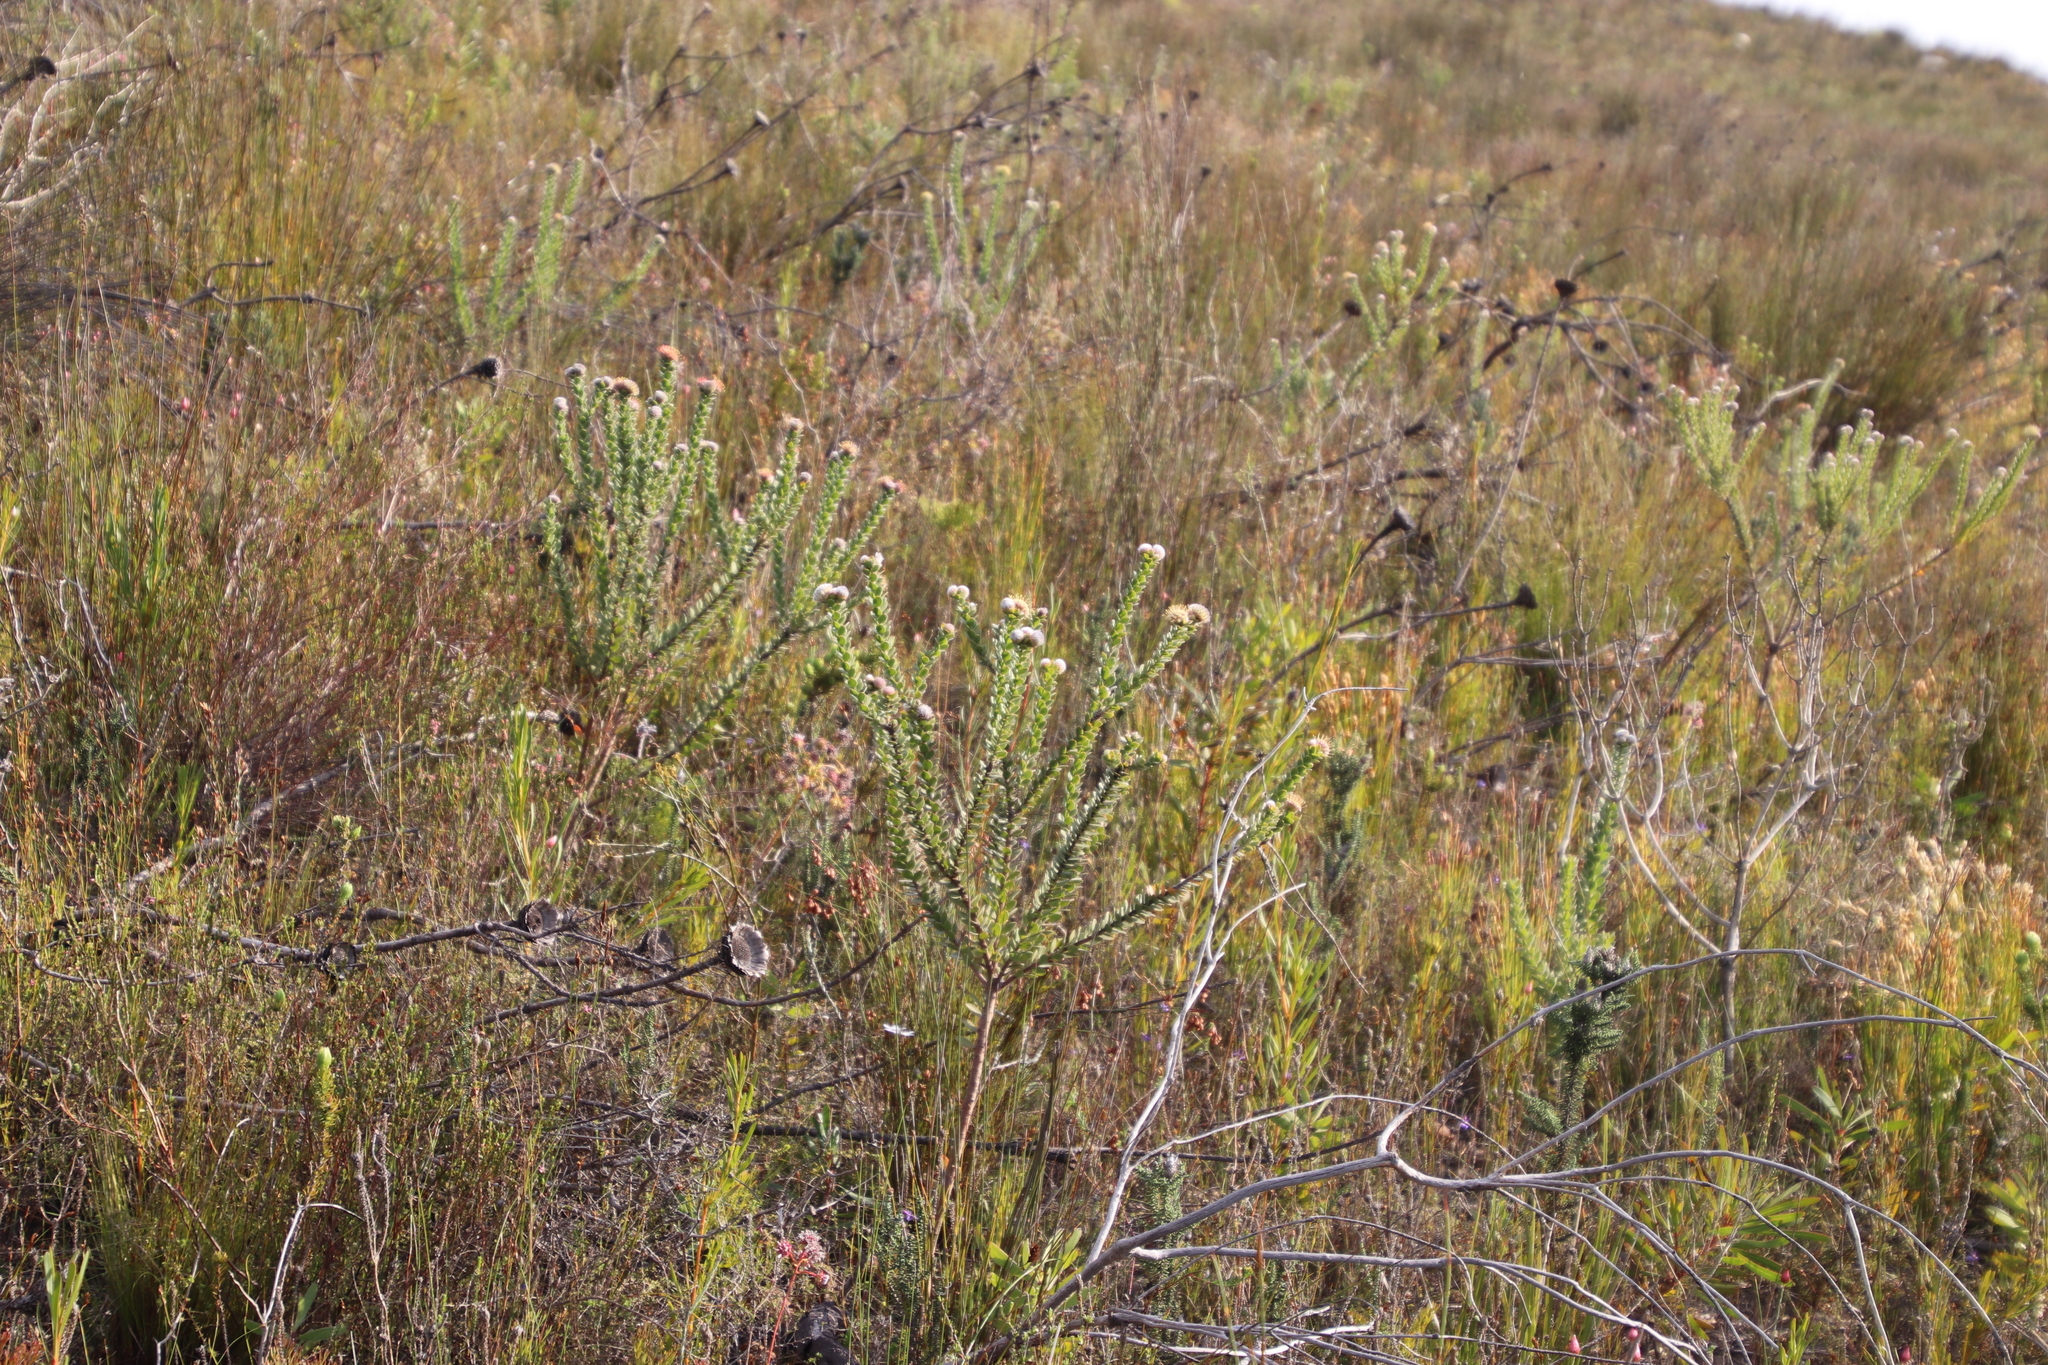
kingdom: Plantae
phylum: Tracheophyta
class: Magnoliopsida
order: Proteales
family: Proteaceae
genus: Leucospermum
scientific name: Leucospermum truncatulum
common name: Oval-leaf pincushion
